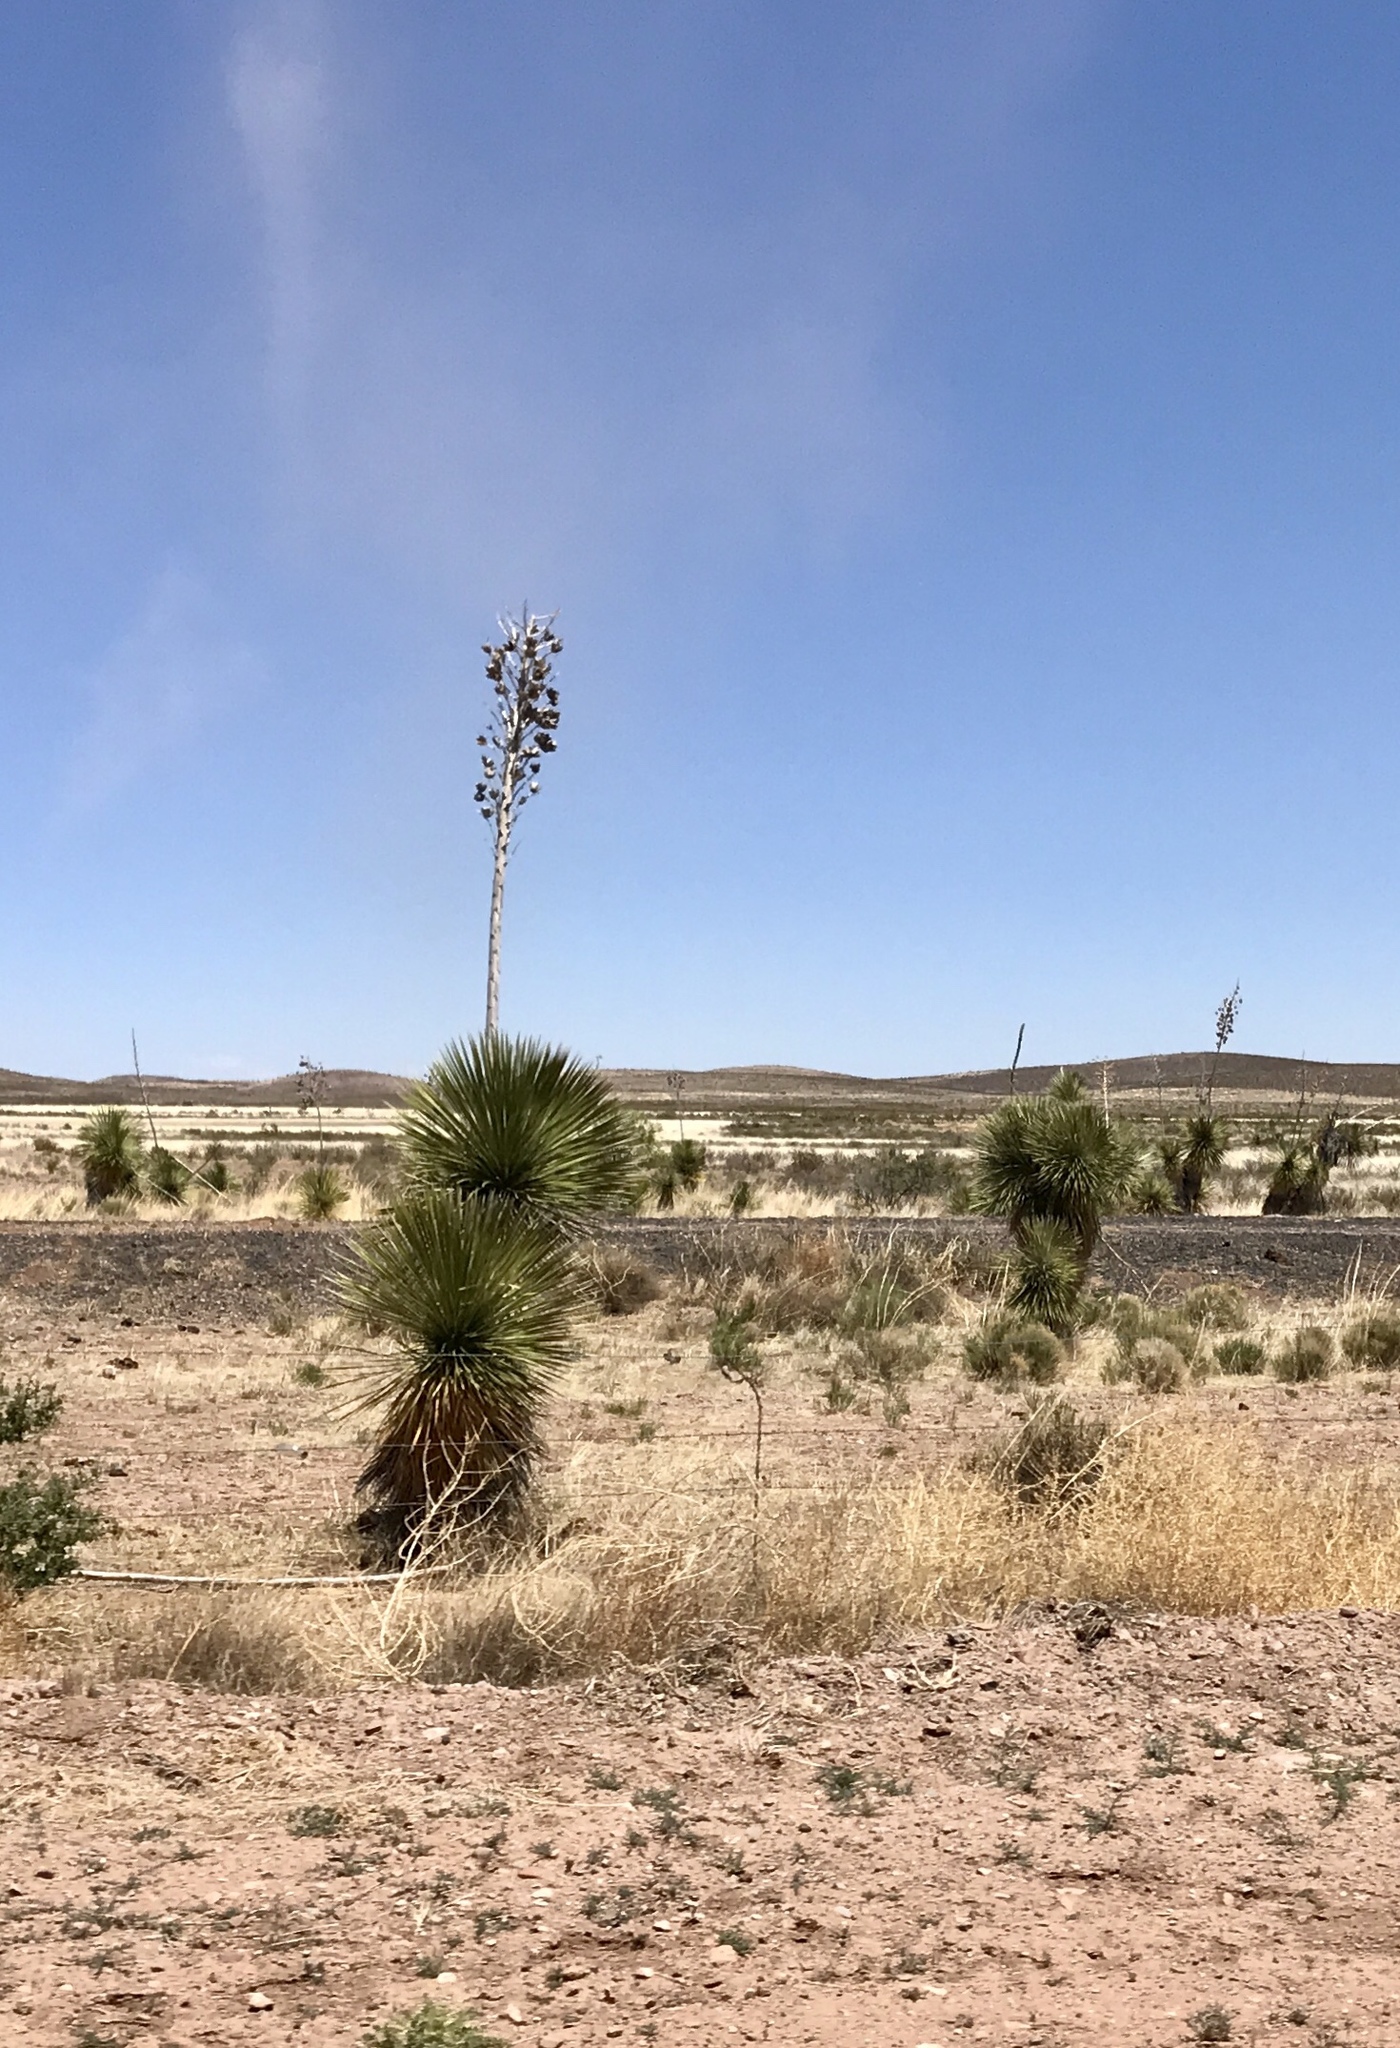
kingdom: Plantae
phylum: Tracheophyta
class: Liliopsida
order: Asparagales
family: Asparagaceae
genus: Yucca
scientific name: Yucca elata
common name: Palmella
